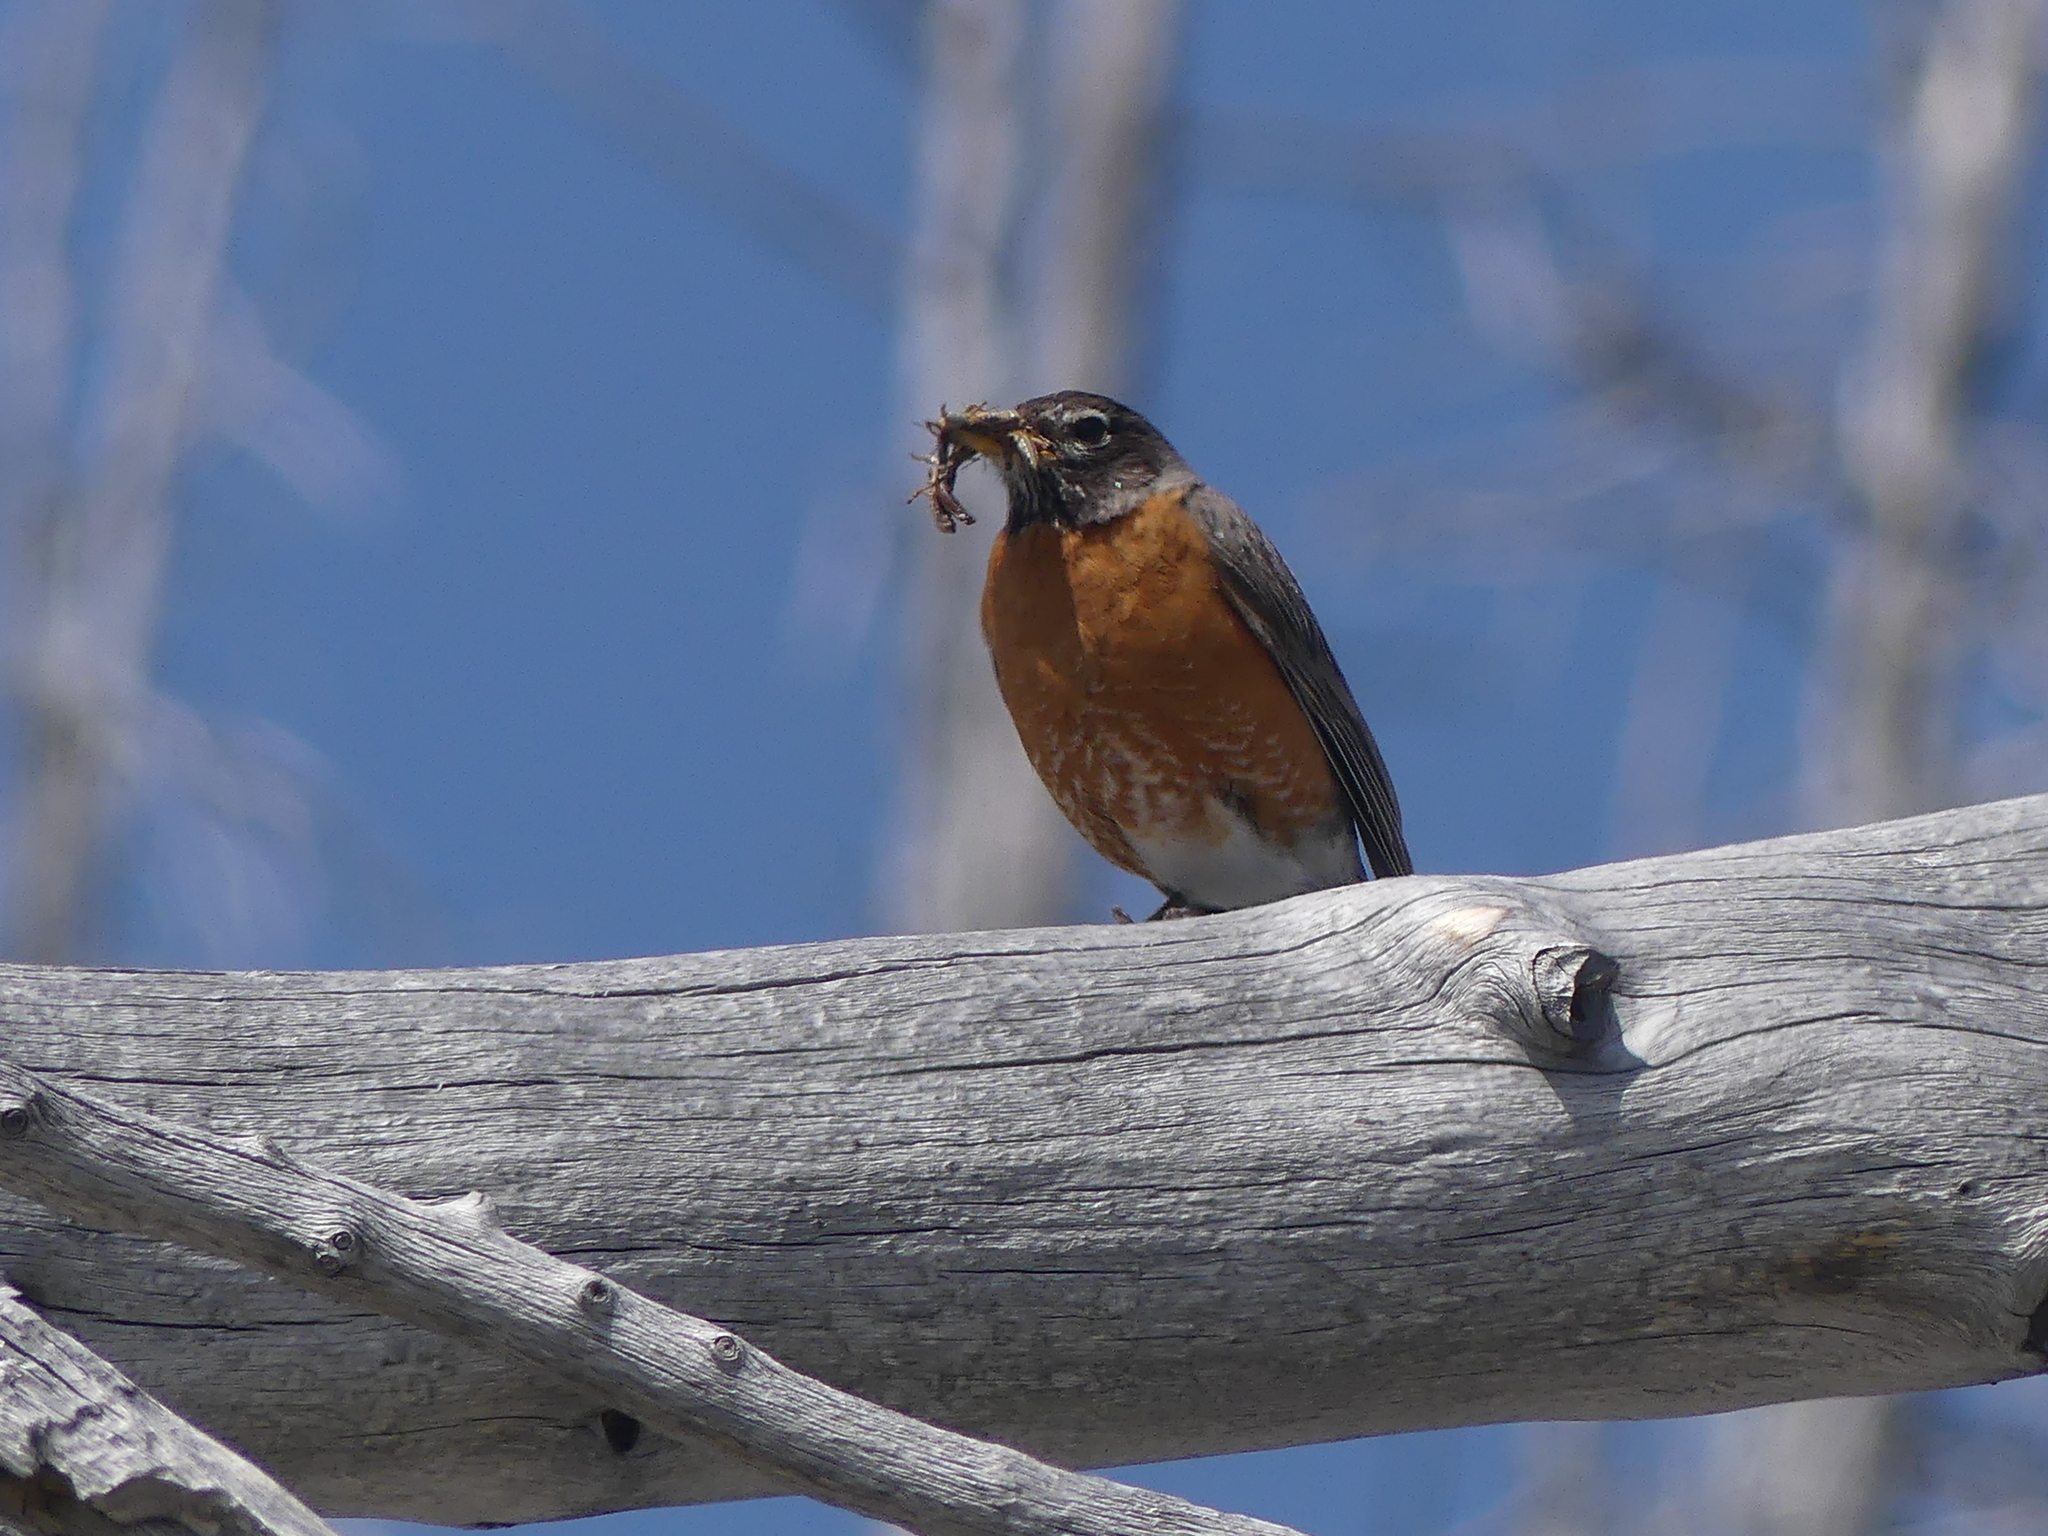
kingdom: Animalia
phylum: Chordata
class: Aves
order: Passeriformes
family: Turdidae
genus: Turdus
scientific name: Turdus migratorius
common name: American robin
